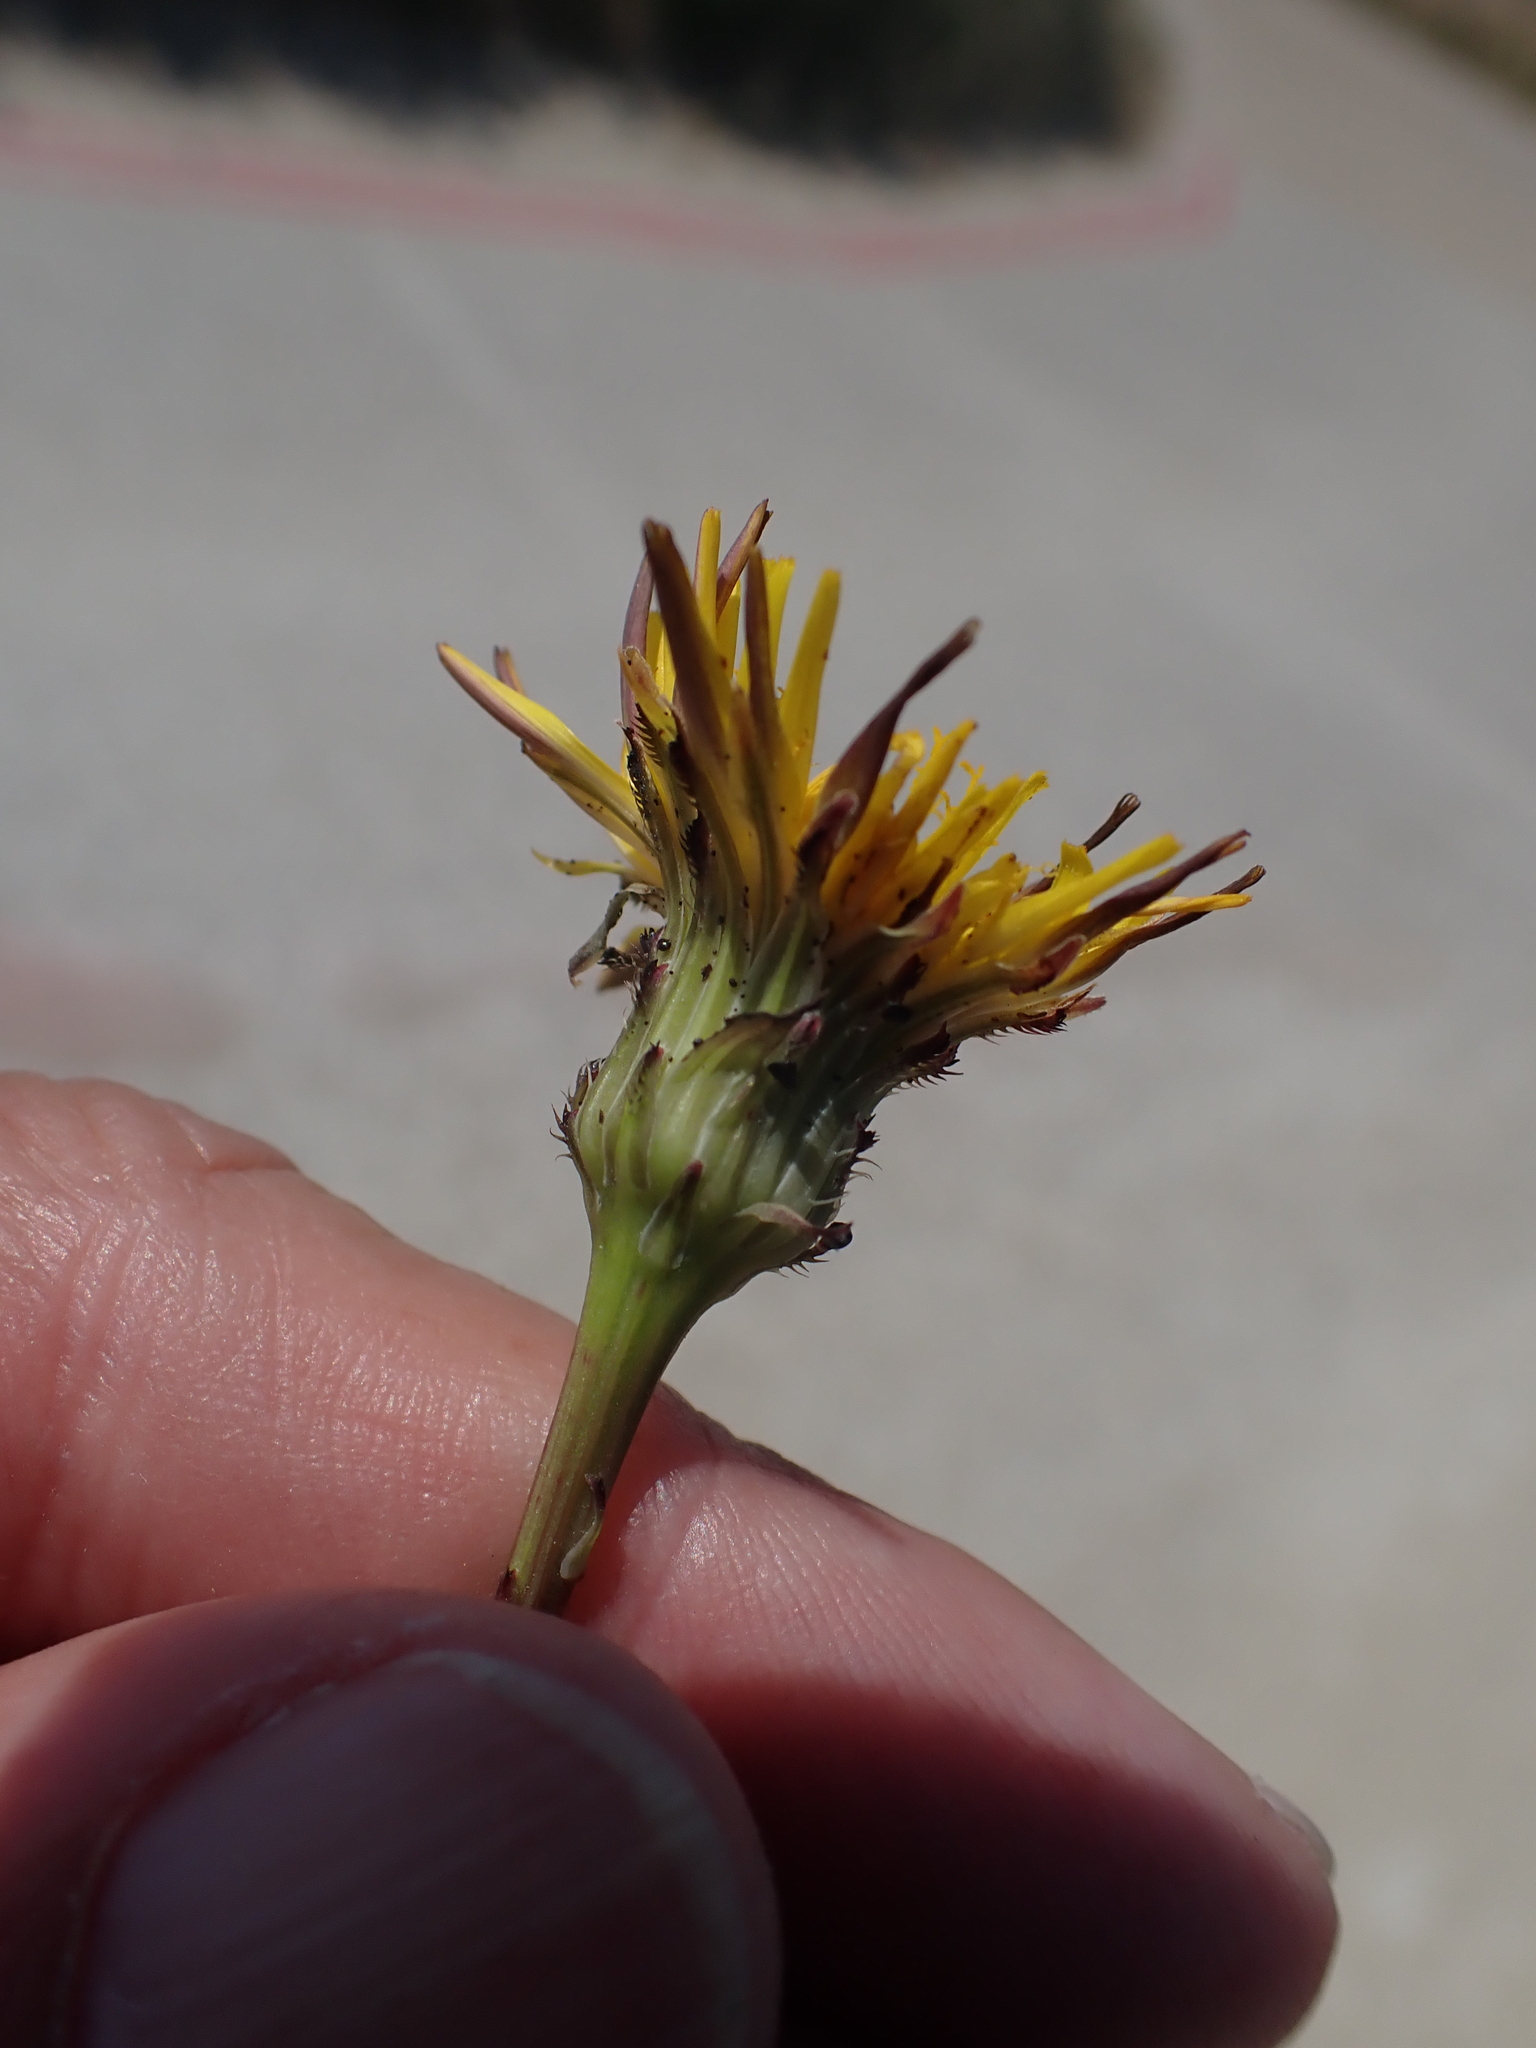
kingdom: Plantae
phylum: Tracheophyta
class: Magnoliopsida
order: Asterales
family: Asteraceae
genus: Hypochaeris
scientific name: Hypochaeris radicata
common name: Flatweed
